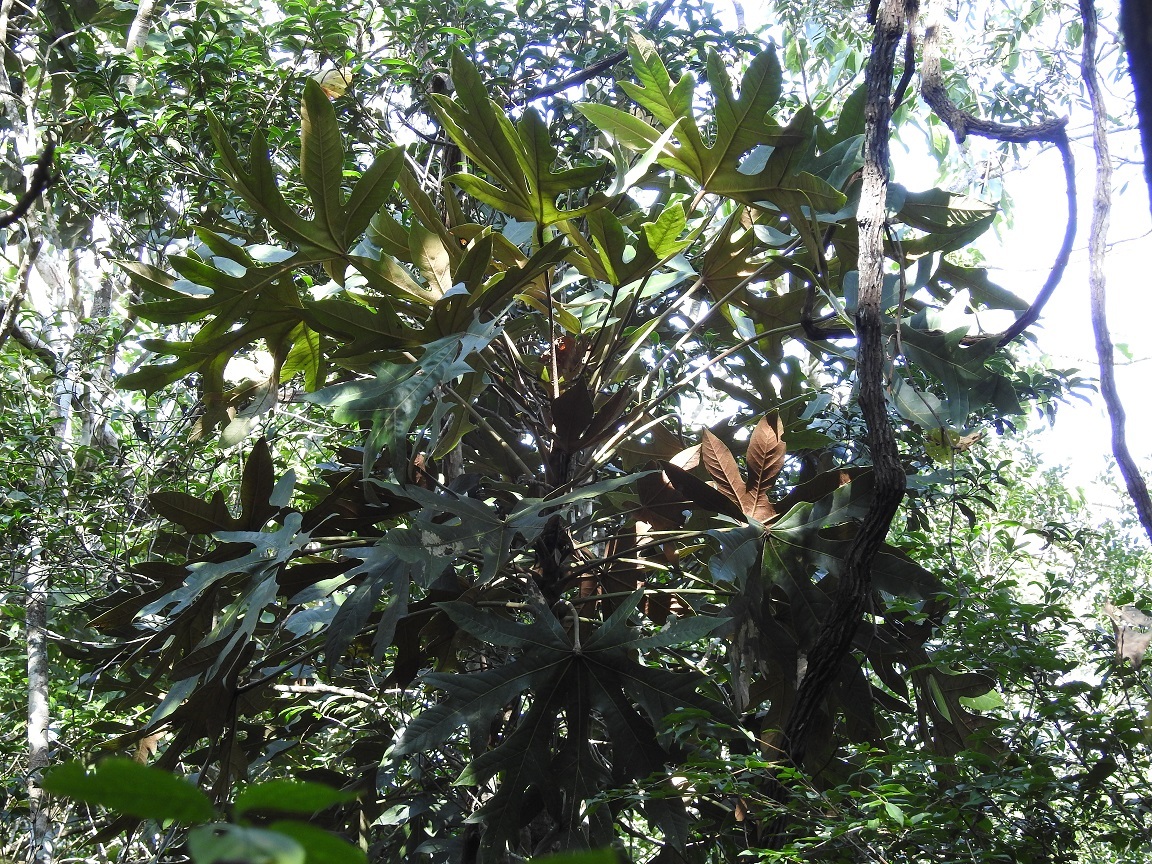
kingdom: Plantae
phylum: Tracheophyta
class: Magnoliopsida
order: Apiales
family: Araliaceae
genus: Oreopanax
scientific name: Oreopanax geminatus
